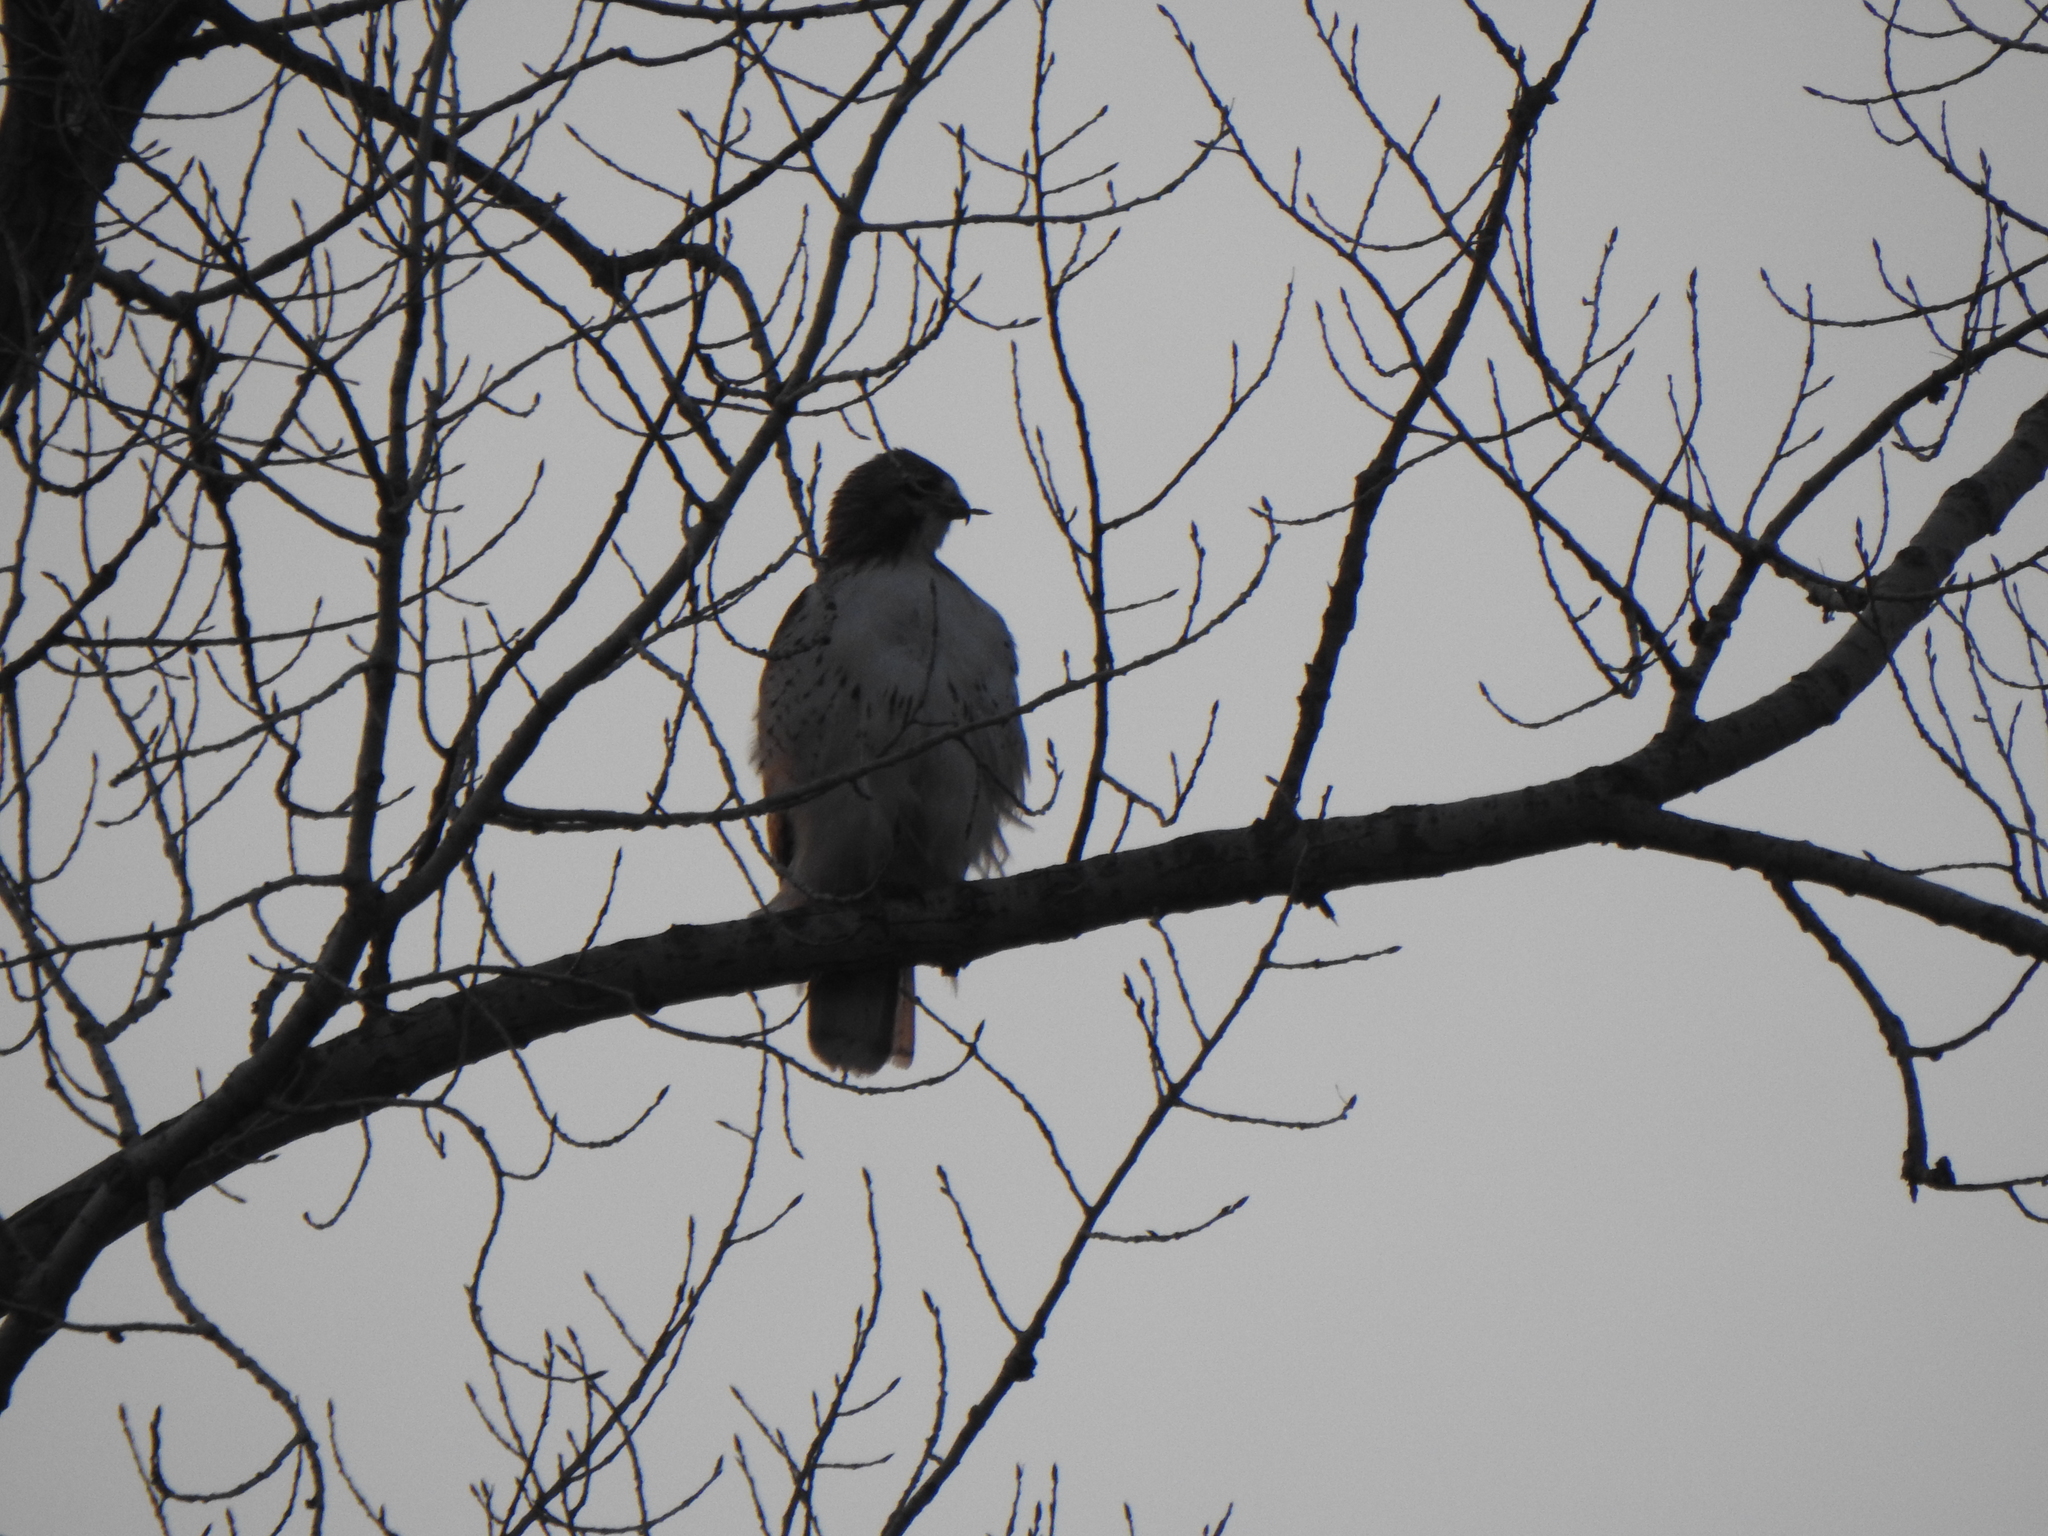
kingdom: Animalia
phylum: Chordata
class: Aves
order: Accipitriformes
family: Accipitridae
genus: Buteo
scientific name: Buteo jamaicensis
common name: Red-tailed hawk
